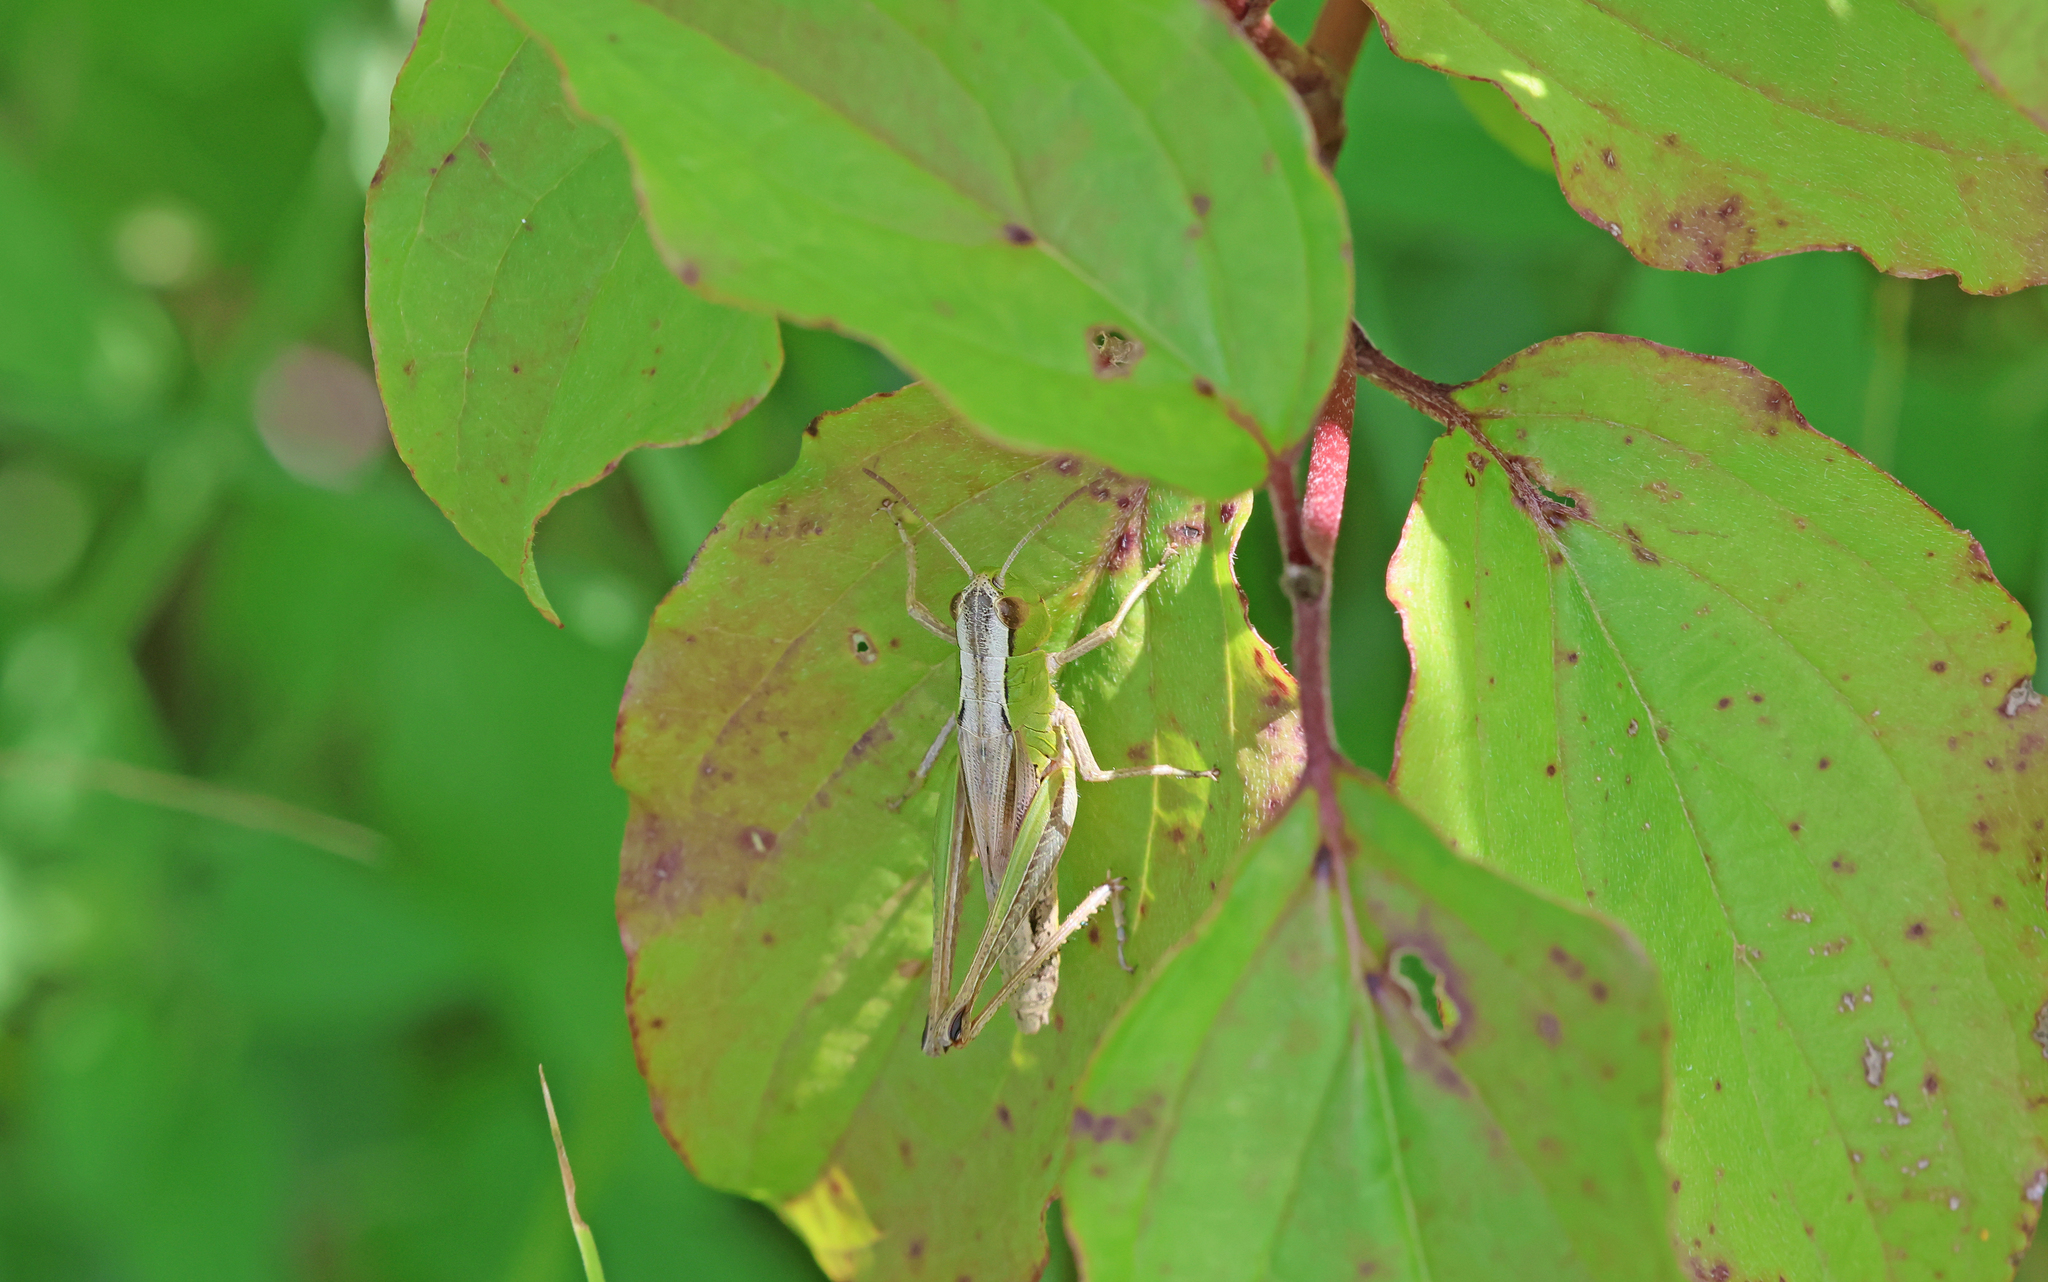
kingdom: Animalia
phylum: Arthropoda
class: Insecta
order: Orthoptera
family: Acrididae
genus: Pseudochorthippus
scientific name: Pseudochorthippus parallelus
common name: Meadow grasshopper
